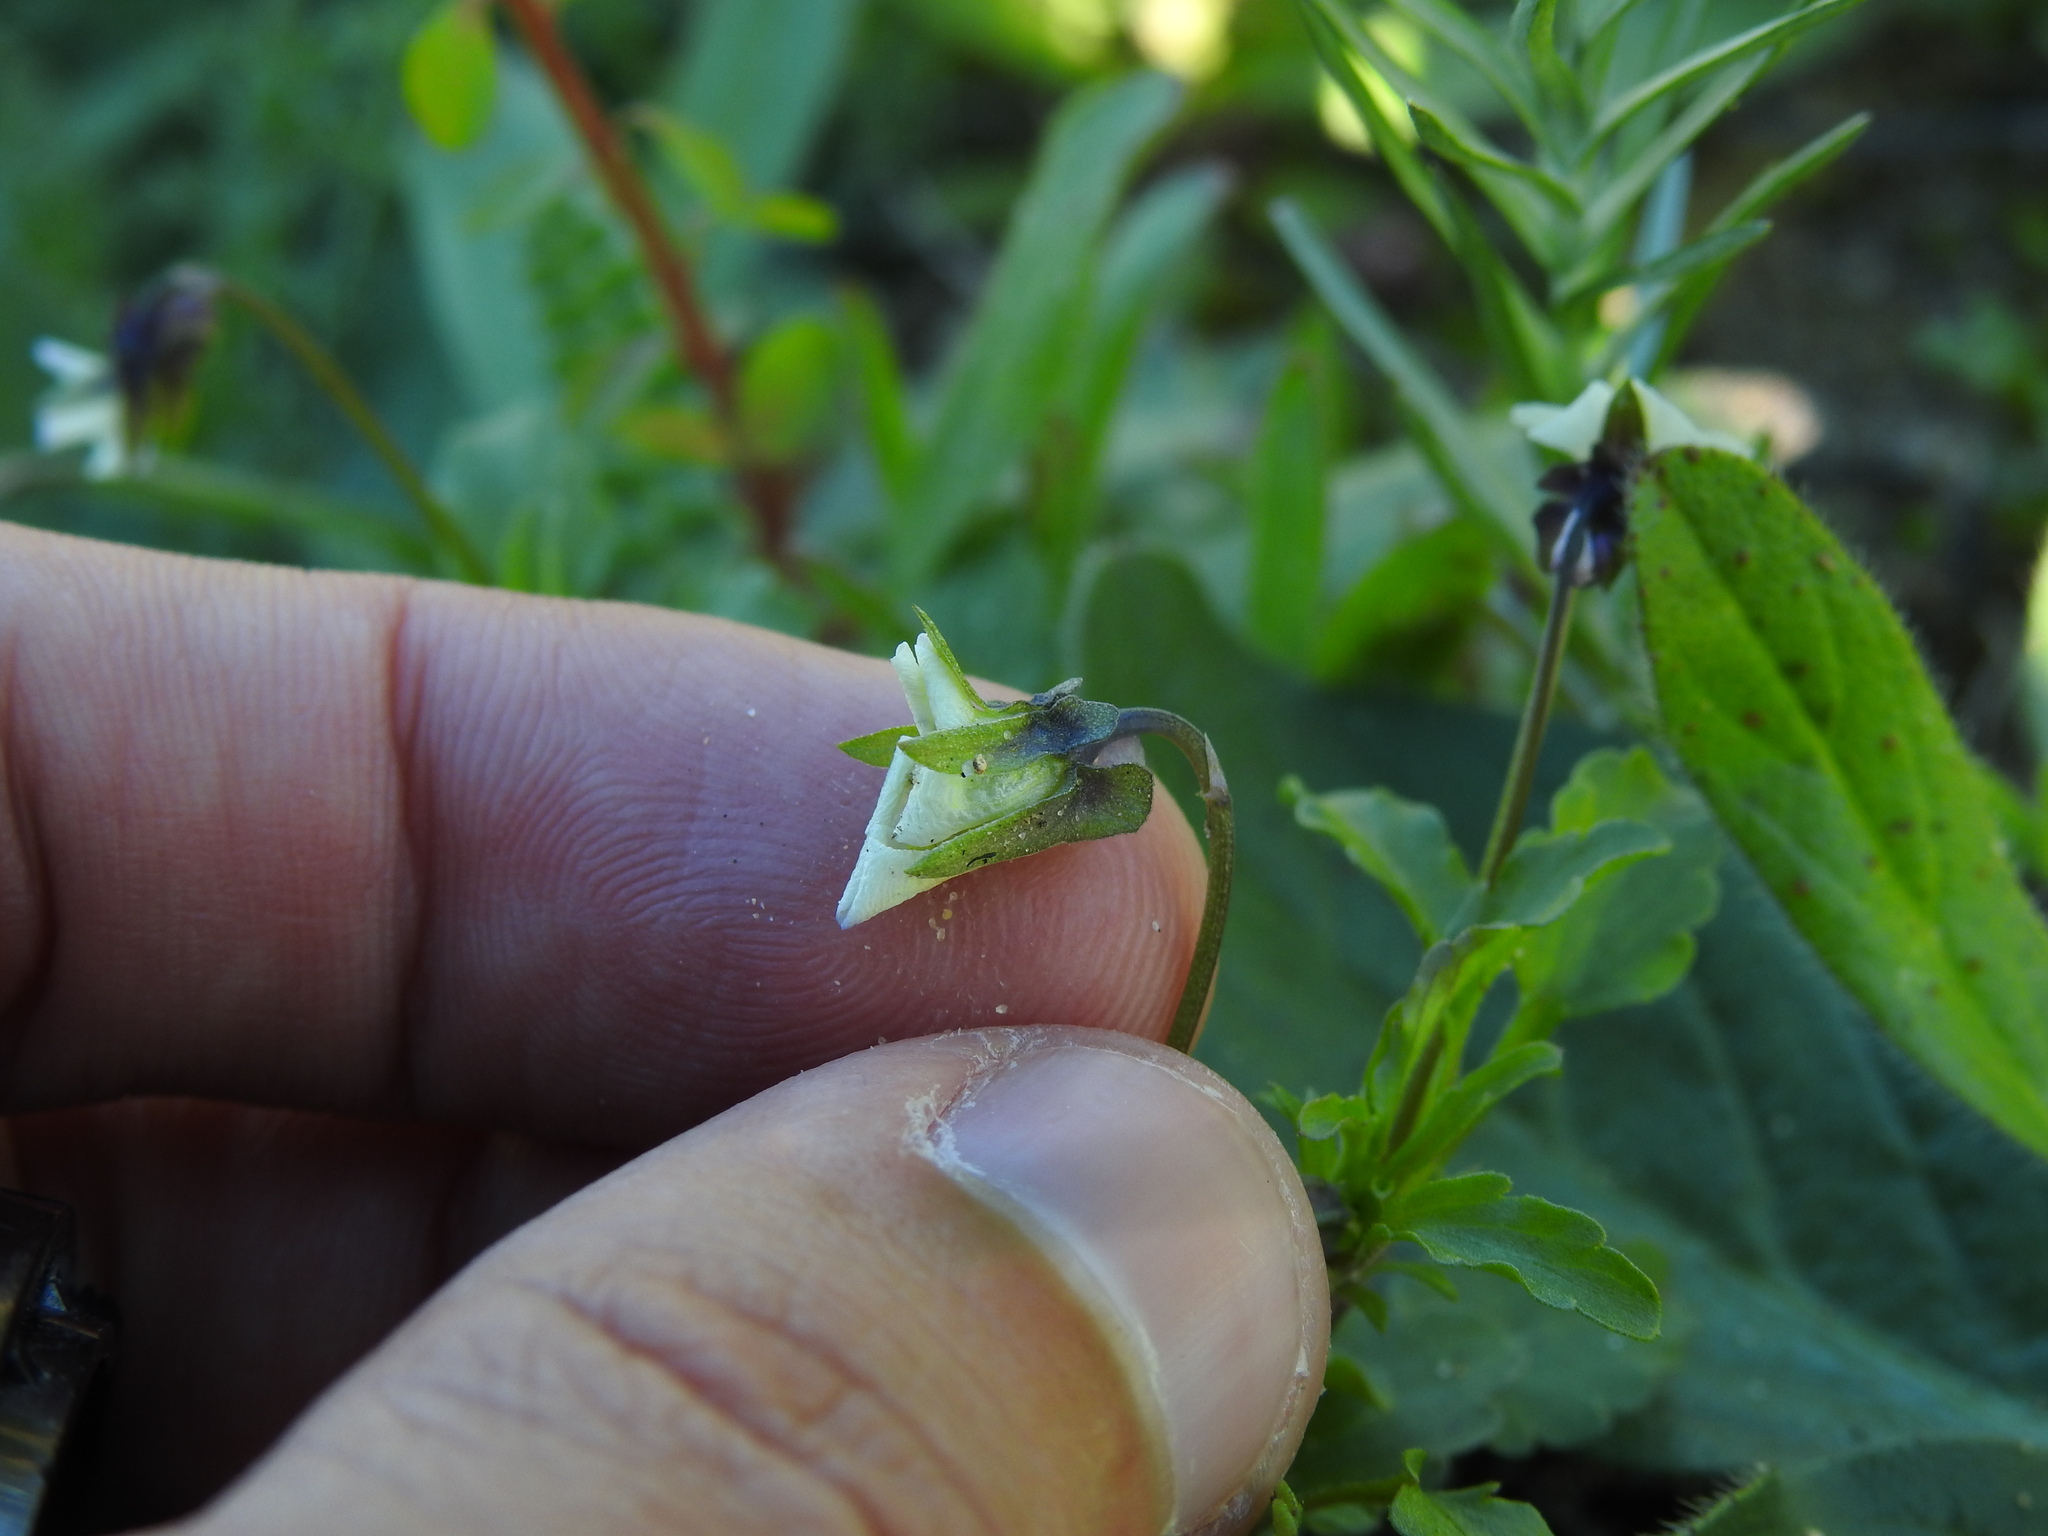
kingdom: Plantae
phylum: Tracheophyta
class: Magnoliopsida
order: Malpighiales
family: Violaceae
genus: Viola
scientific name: Viola kitaibeliana
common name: Dwarf pansy
